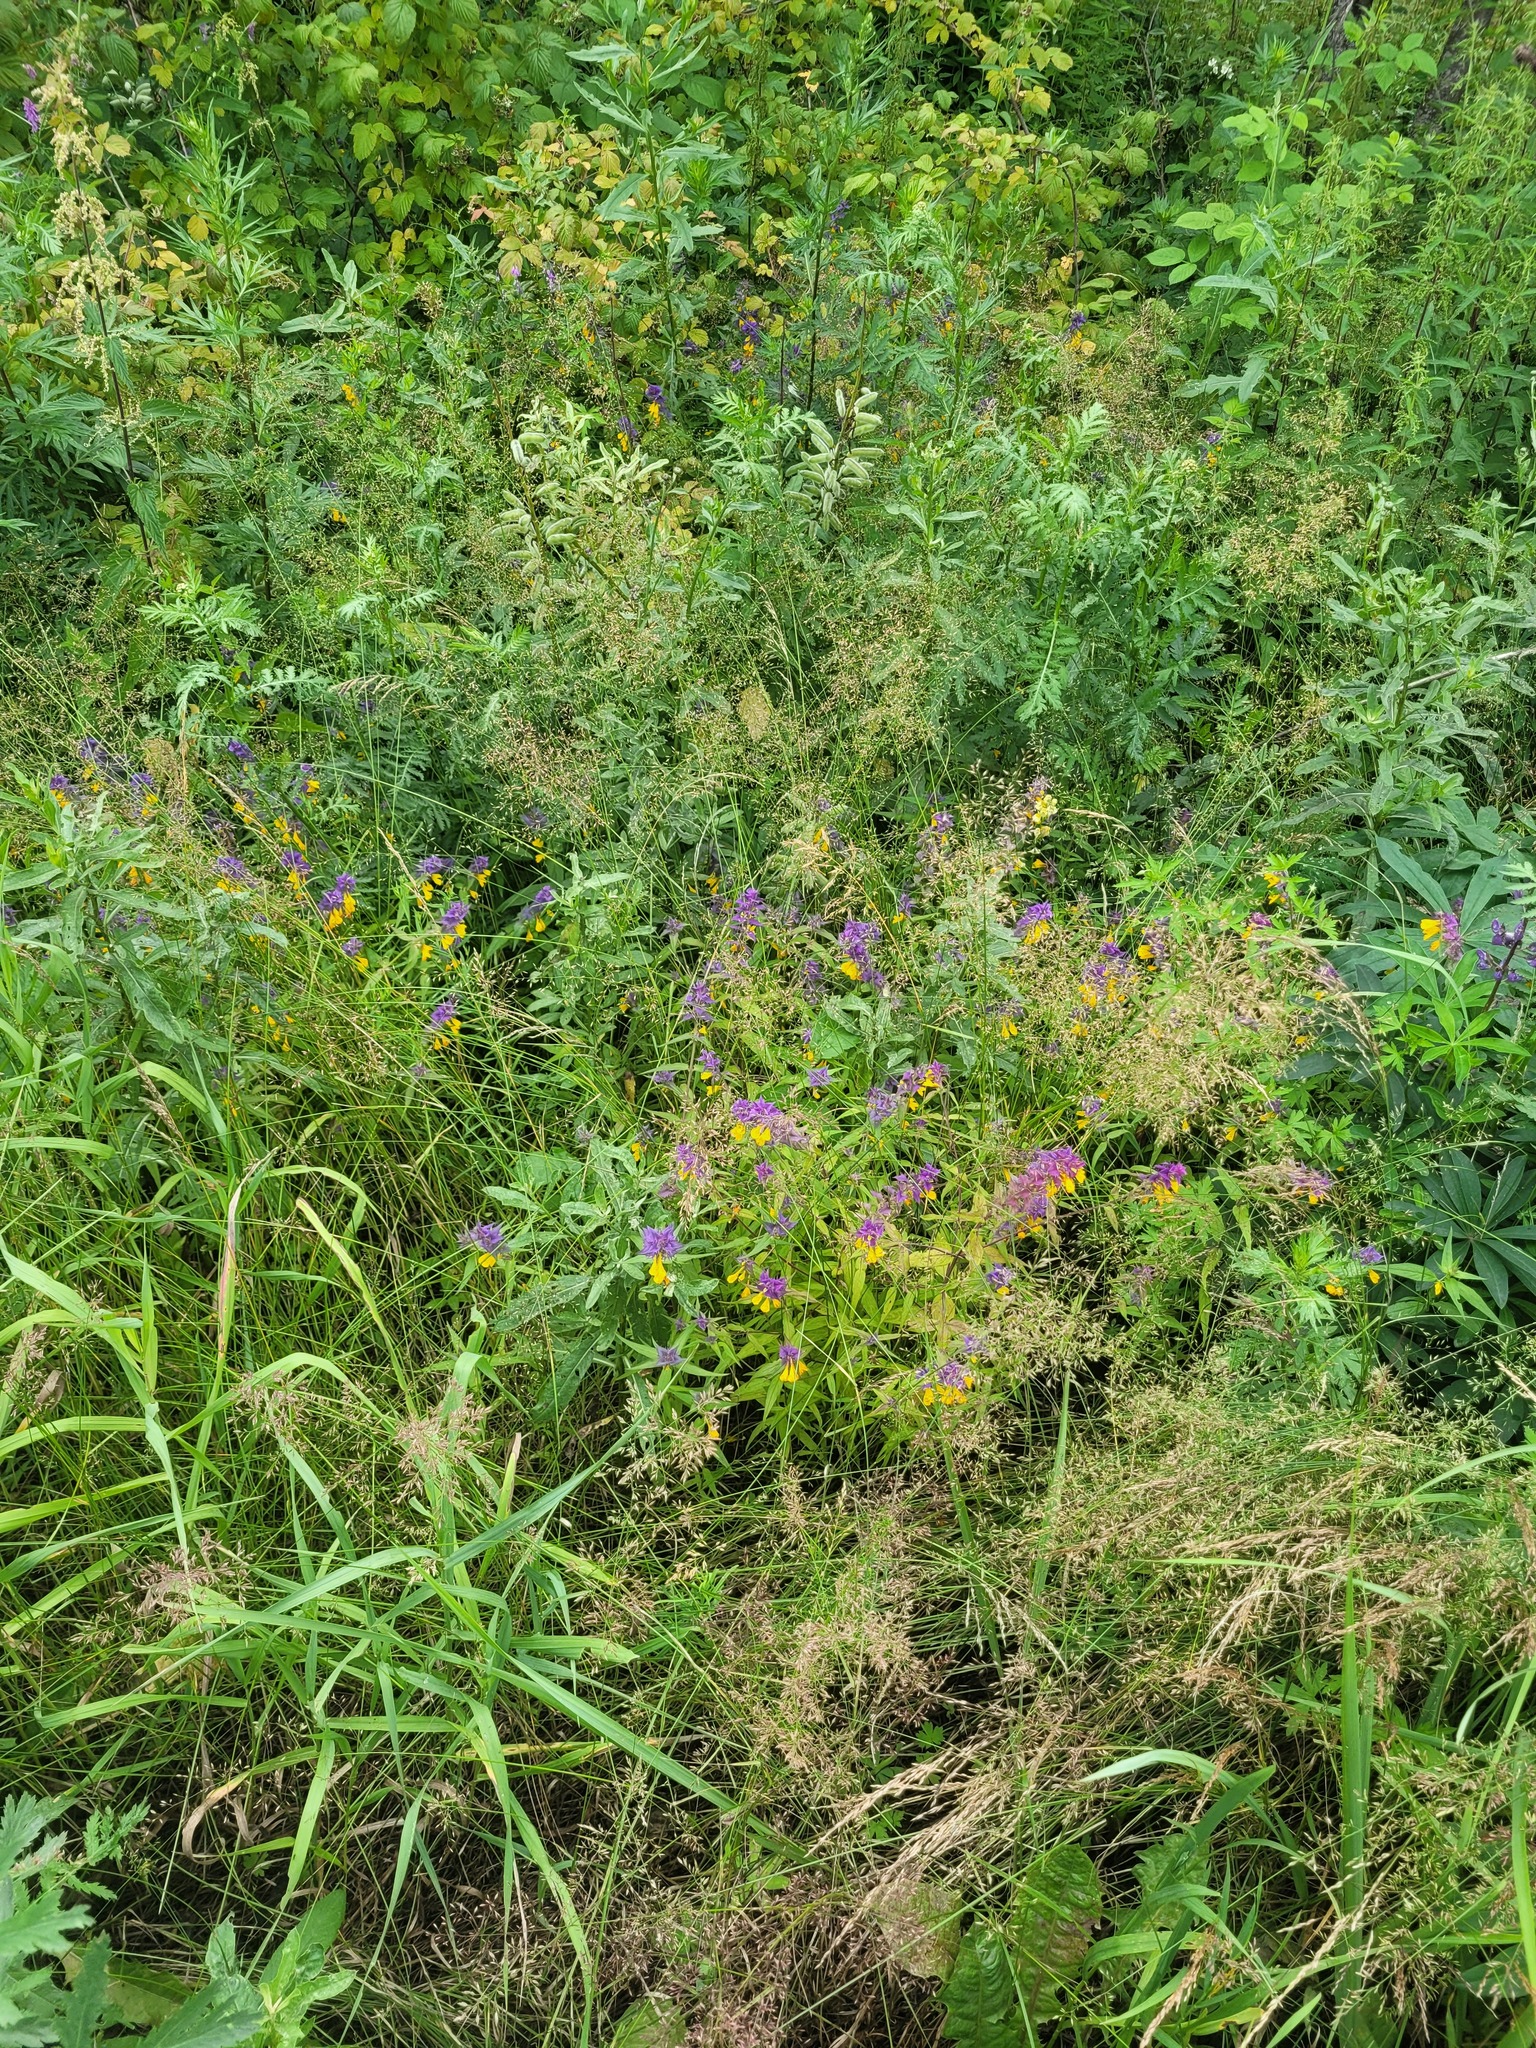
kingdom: Plantae
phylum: Tracheophyta
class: Magnoliopsida
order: Lamiales
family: Orobanchaceae
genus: Melampyrum
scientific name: Melampyrum nemorosum
